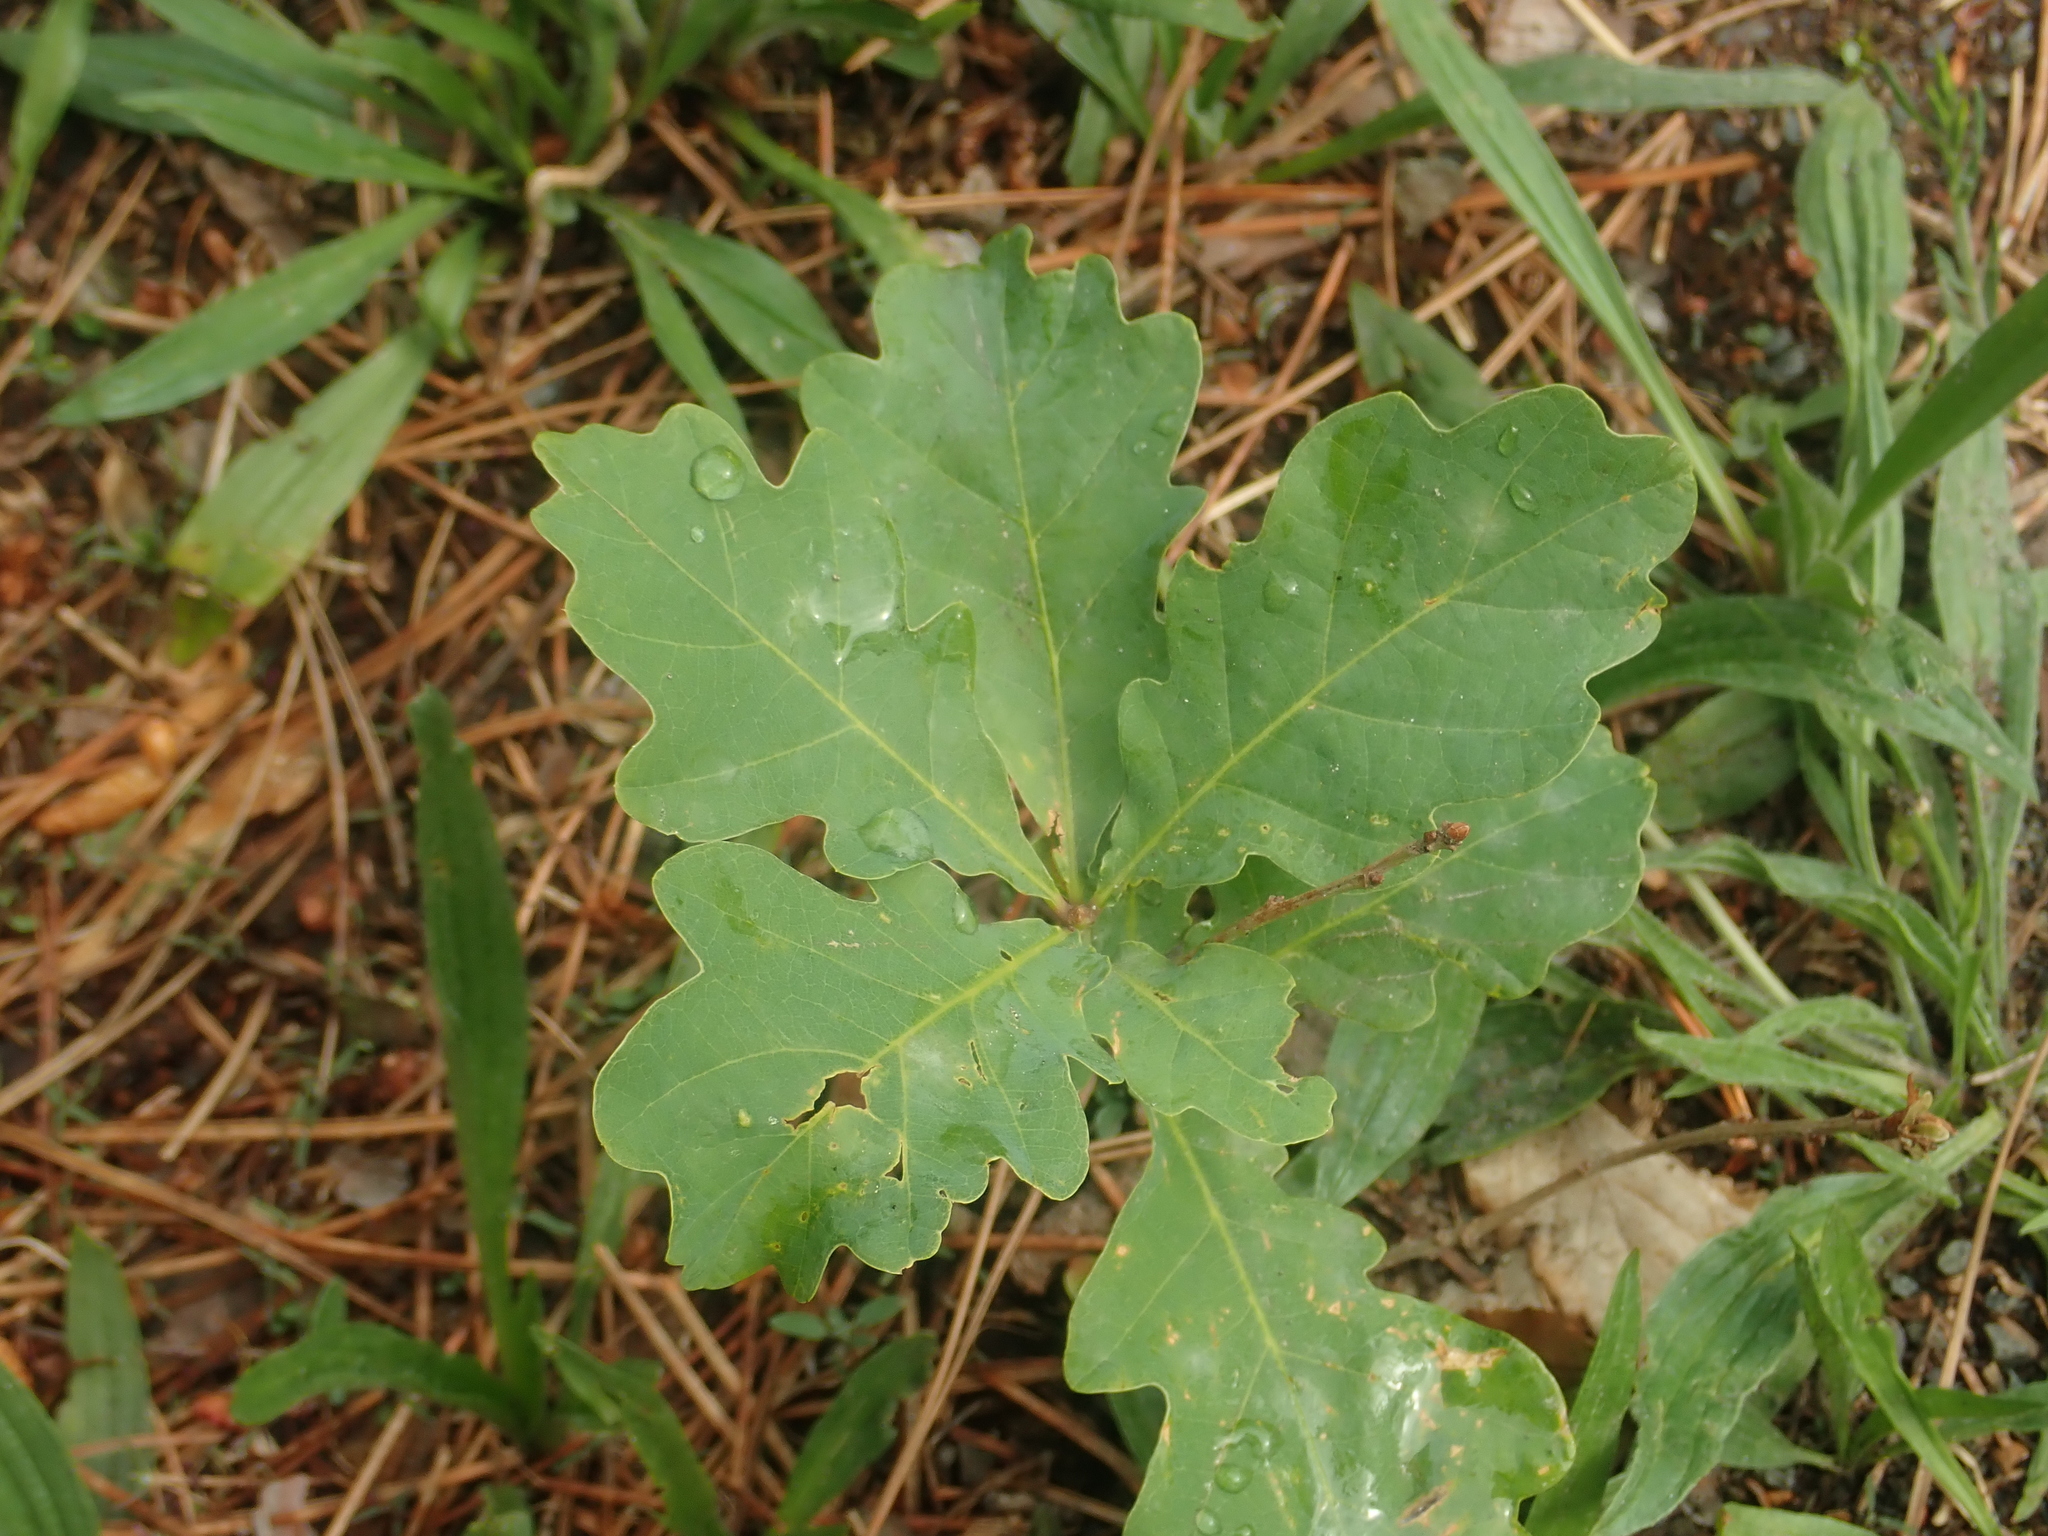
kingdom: Plantae
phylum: Tracheophyta
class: Magnoliopsida
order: Fagales
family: Fagaceae
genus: Quercus
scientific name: Quercus robur
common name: Pedunculate oak
